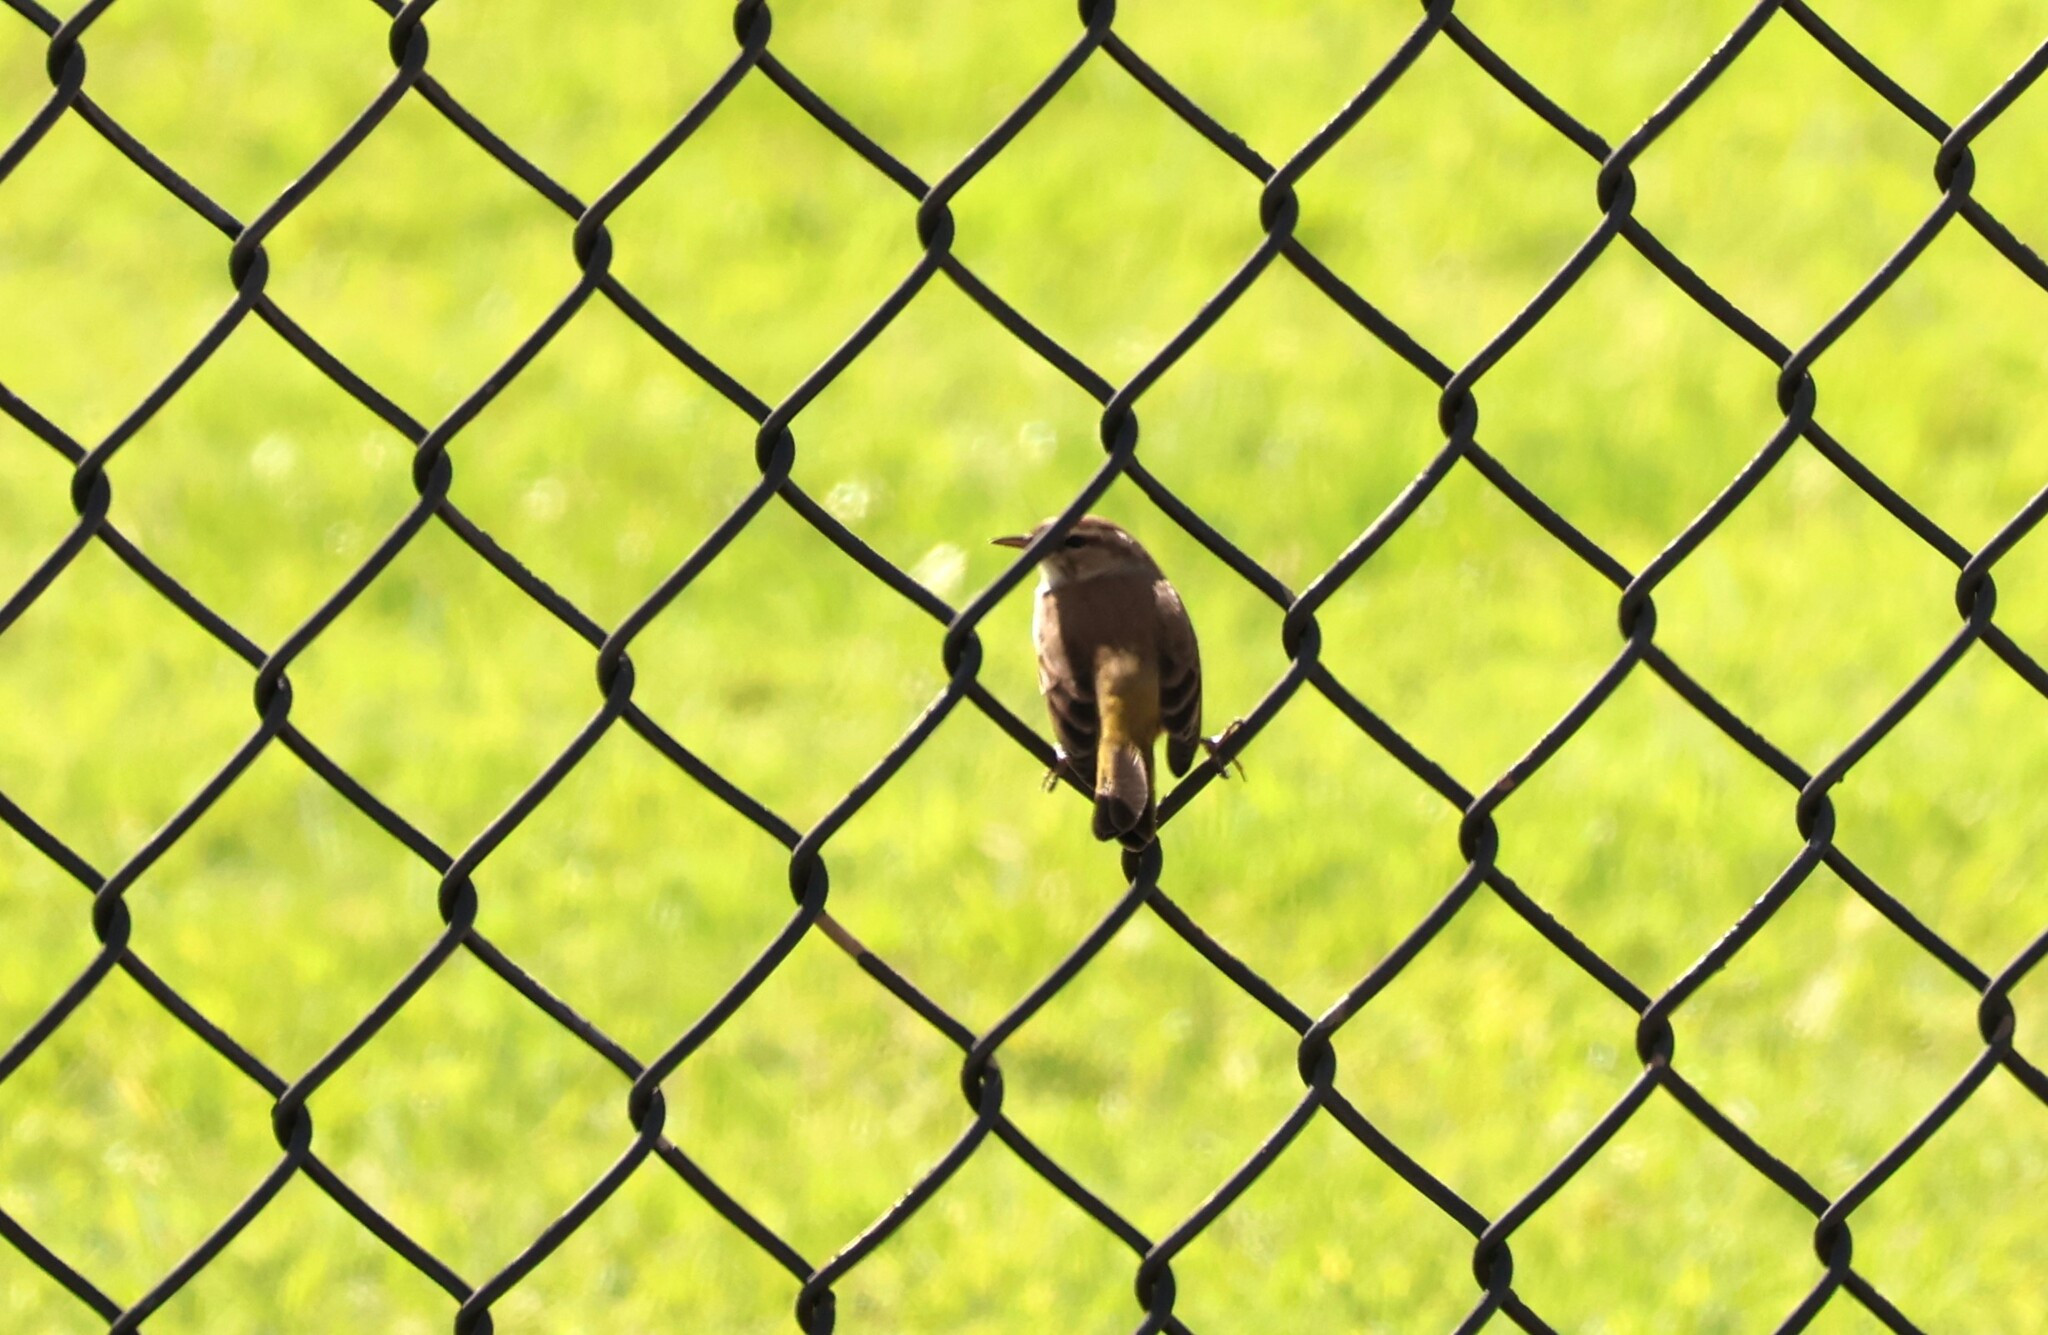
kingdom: Animalia
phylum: Chordata
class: Aves
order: Passeriformes
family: Parulidae
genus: Setophaga
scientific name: Setophaga palmarum
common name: Palm warbler
